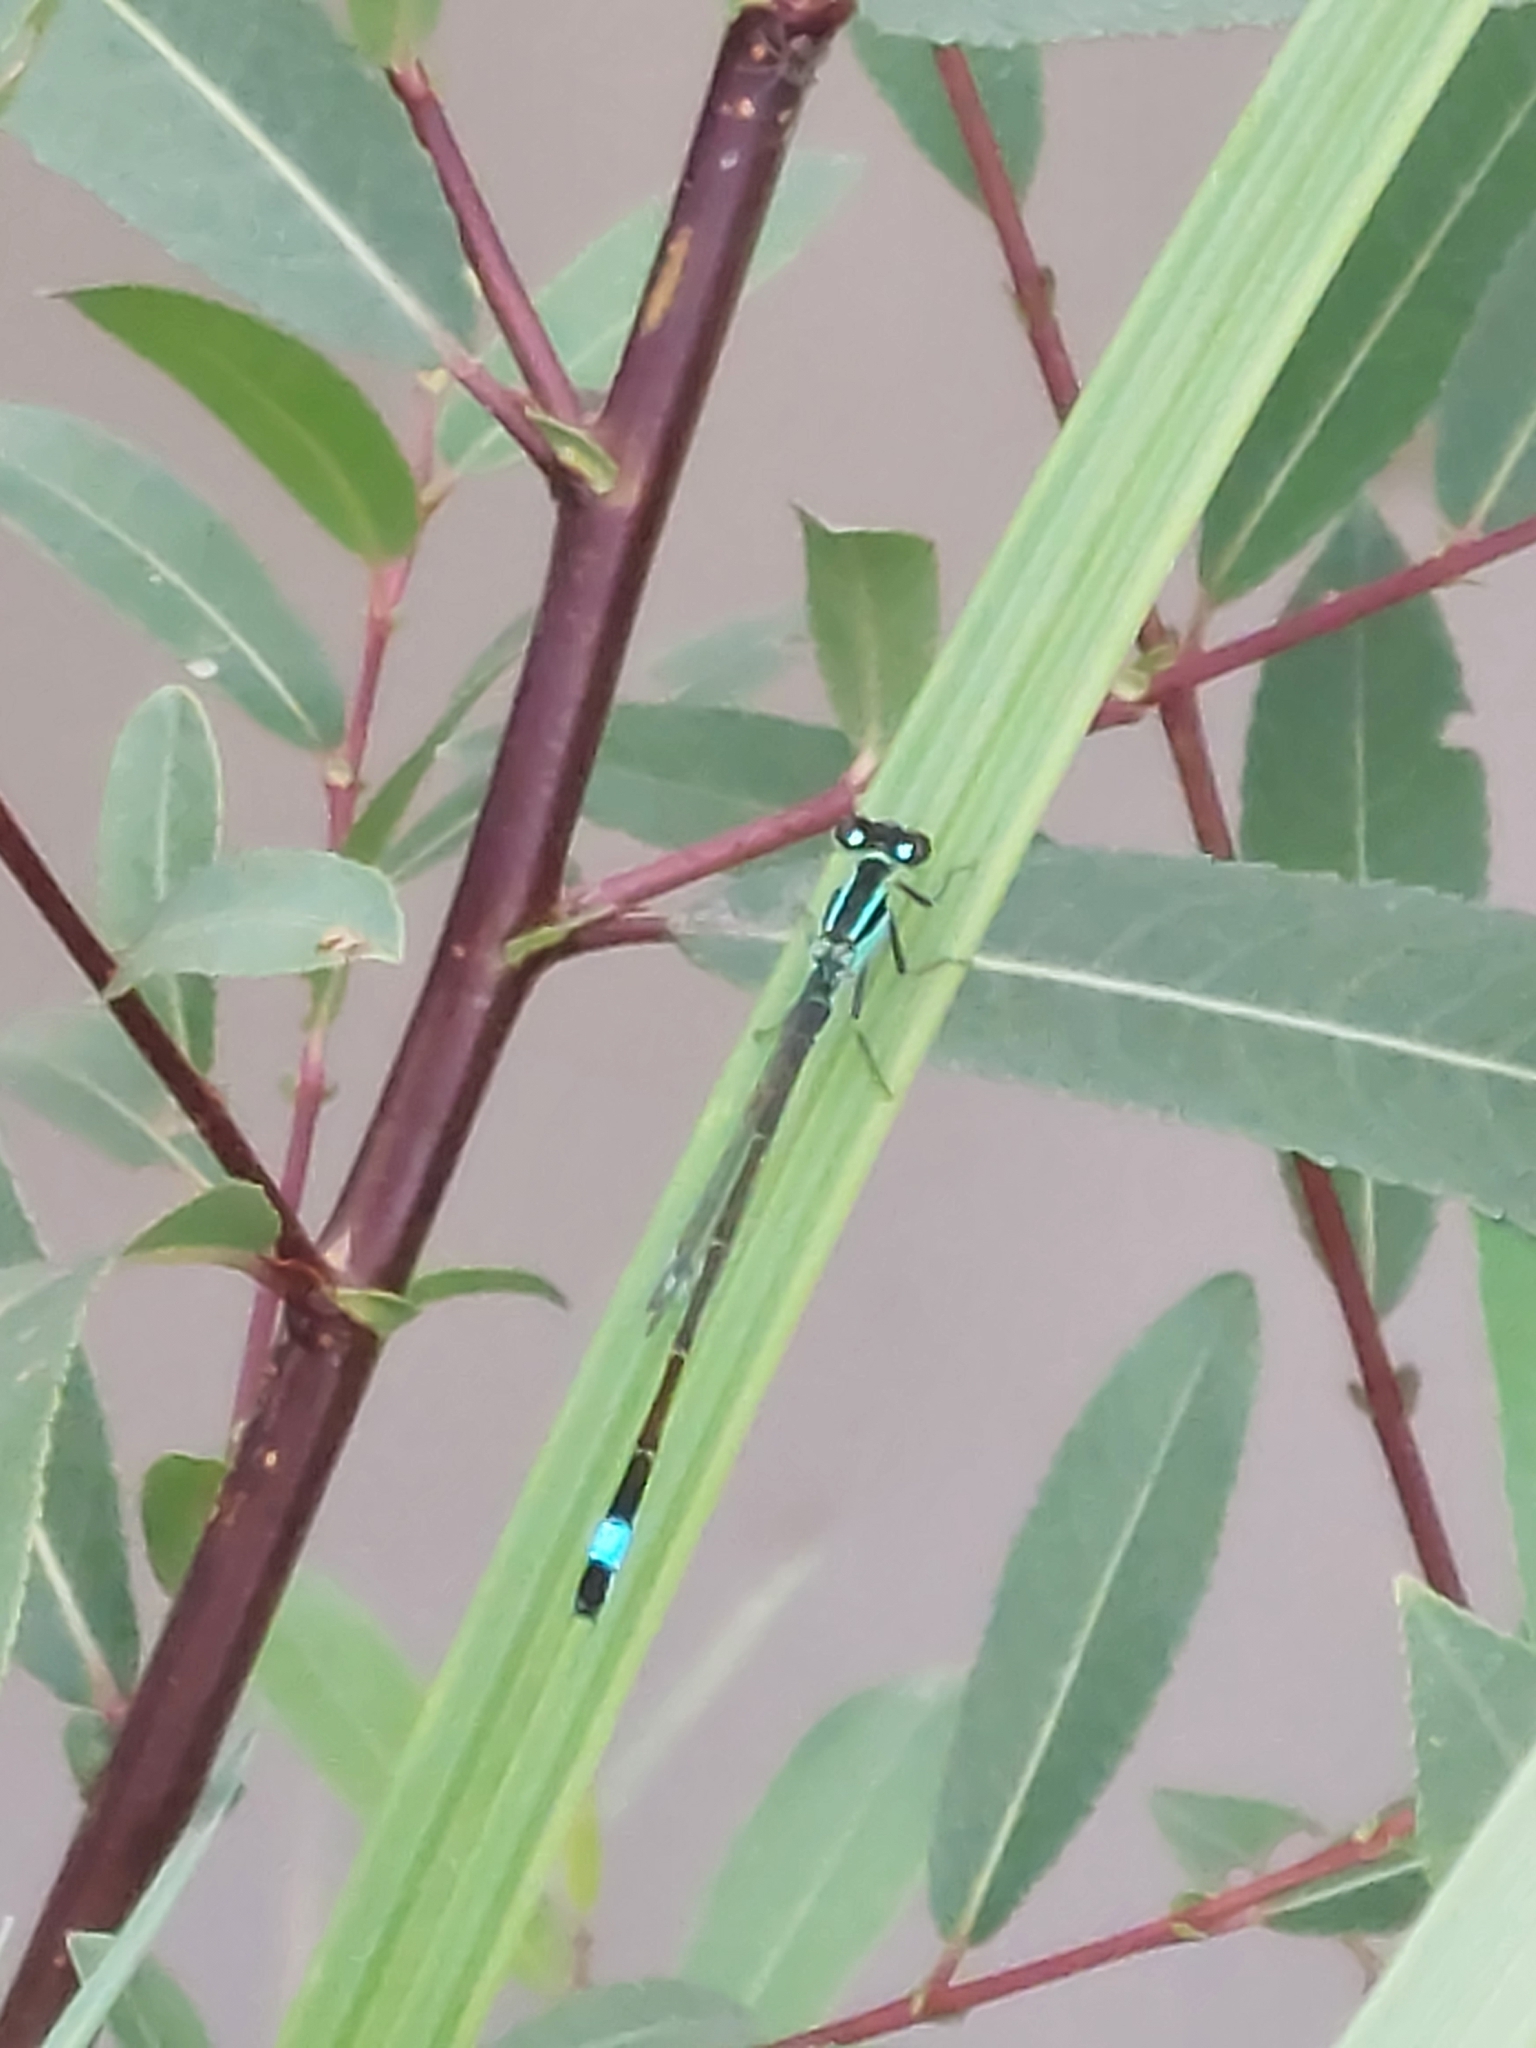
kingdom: Animalia
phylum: Arthropoda
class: Insecta
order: Odonata
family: Coenagrionidae
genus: Ischnura
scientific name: Ischnura elegans
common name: Blue-tailed damselfly
